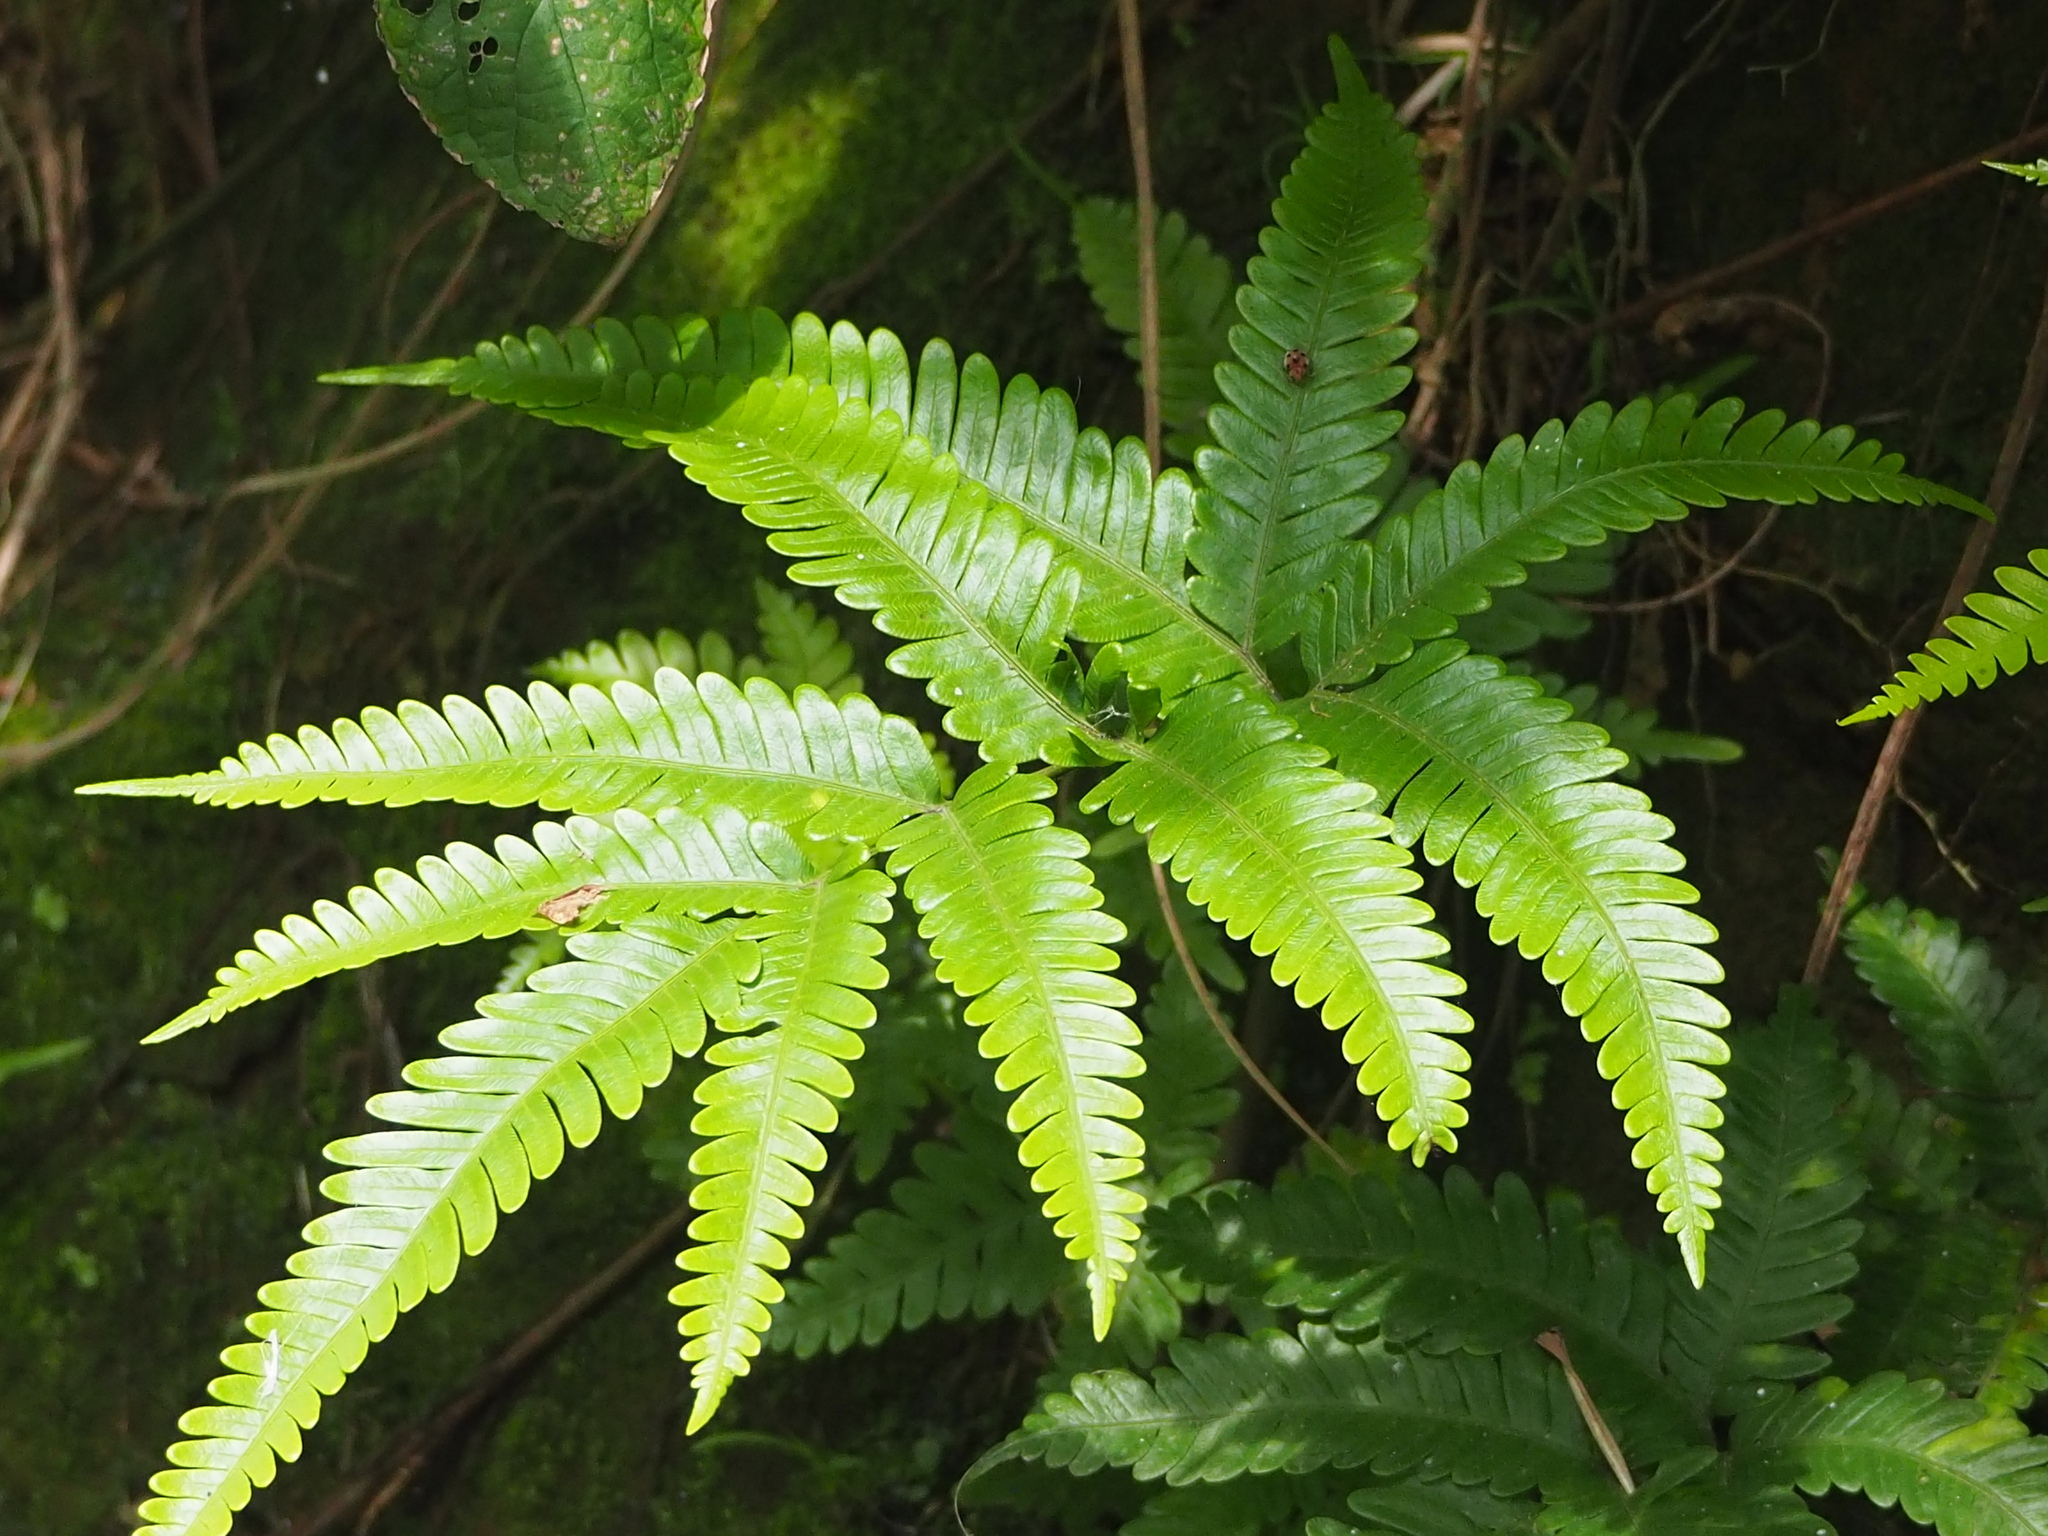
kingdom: Plantae
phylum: Tracheophyta
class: Polypodiopsida
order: Polypodiales
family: Pteridaceae
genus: Pteris
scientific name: Pteris fauriei
